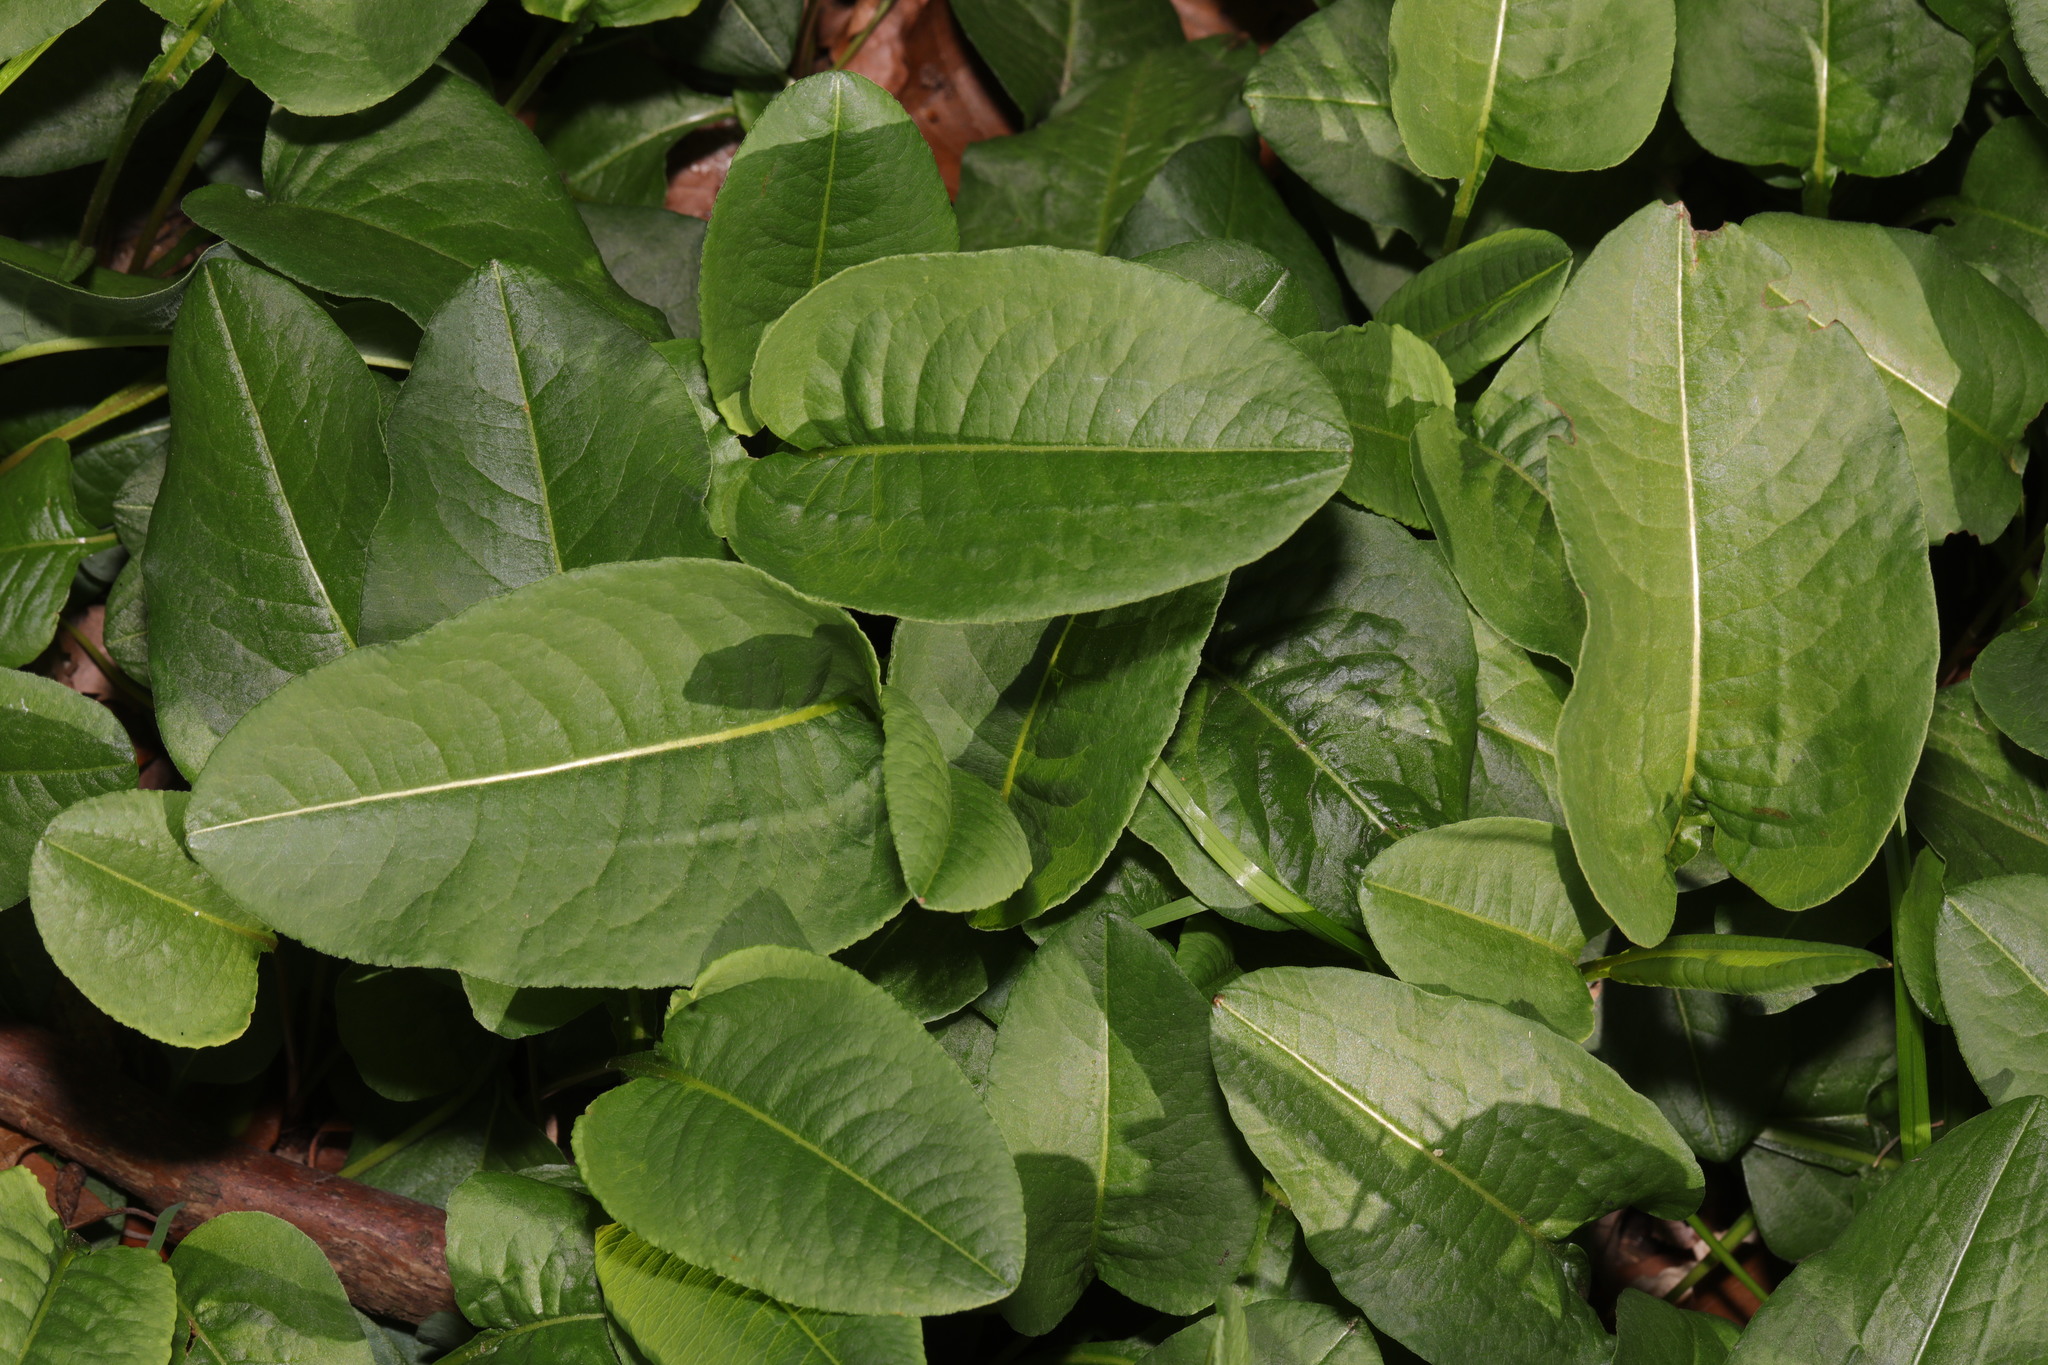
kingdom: Plantae
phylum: Tracheophyta
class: Magnoliopsida
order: Caryophyllales
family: Polygonaceae
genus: Bistorta
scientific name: Bistorta officinalis
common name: Common bistort
